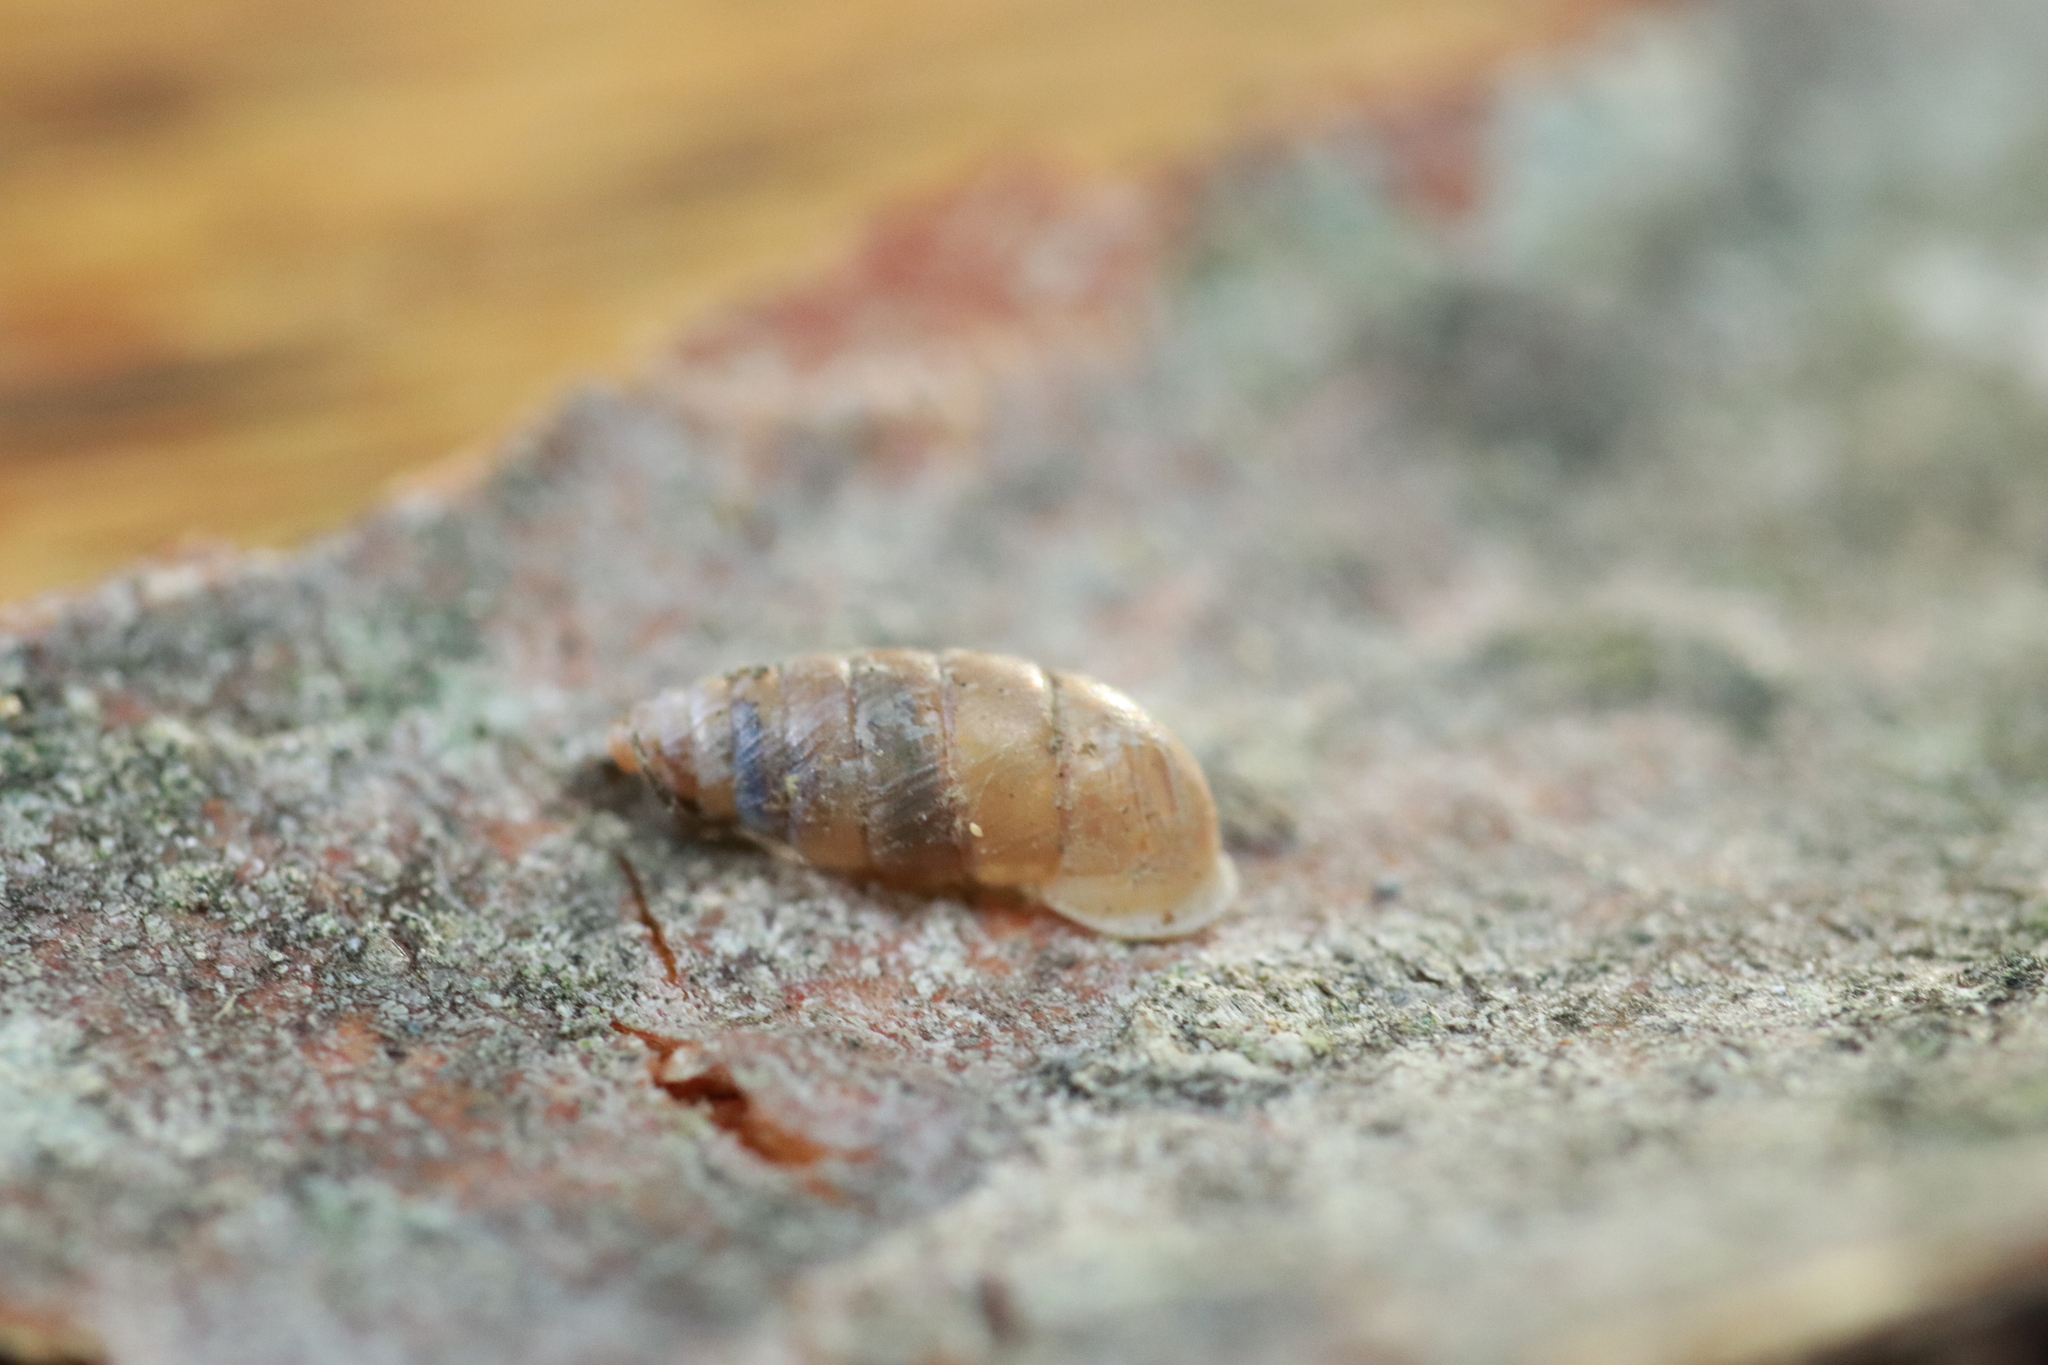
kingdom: Animalia
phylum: Mollusca
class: Gastropoda
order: Stylommatophora
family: Chondrinidae
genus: Granaria
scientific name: Granaria variabilis
